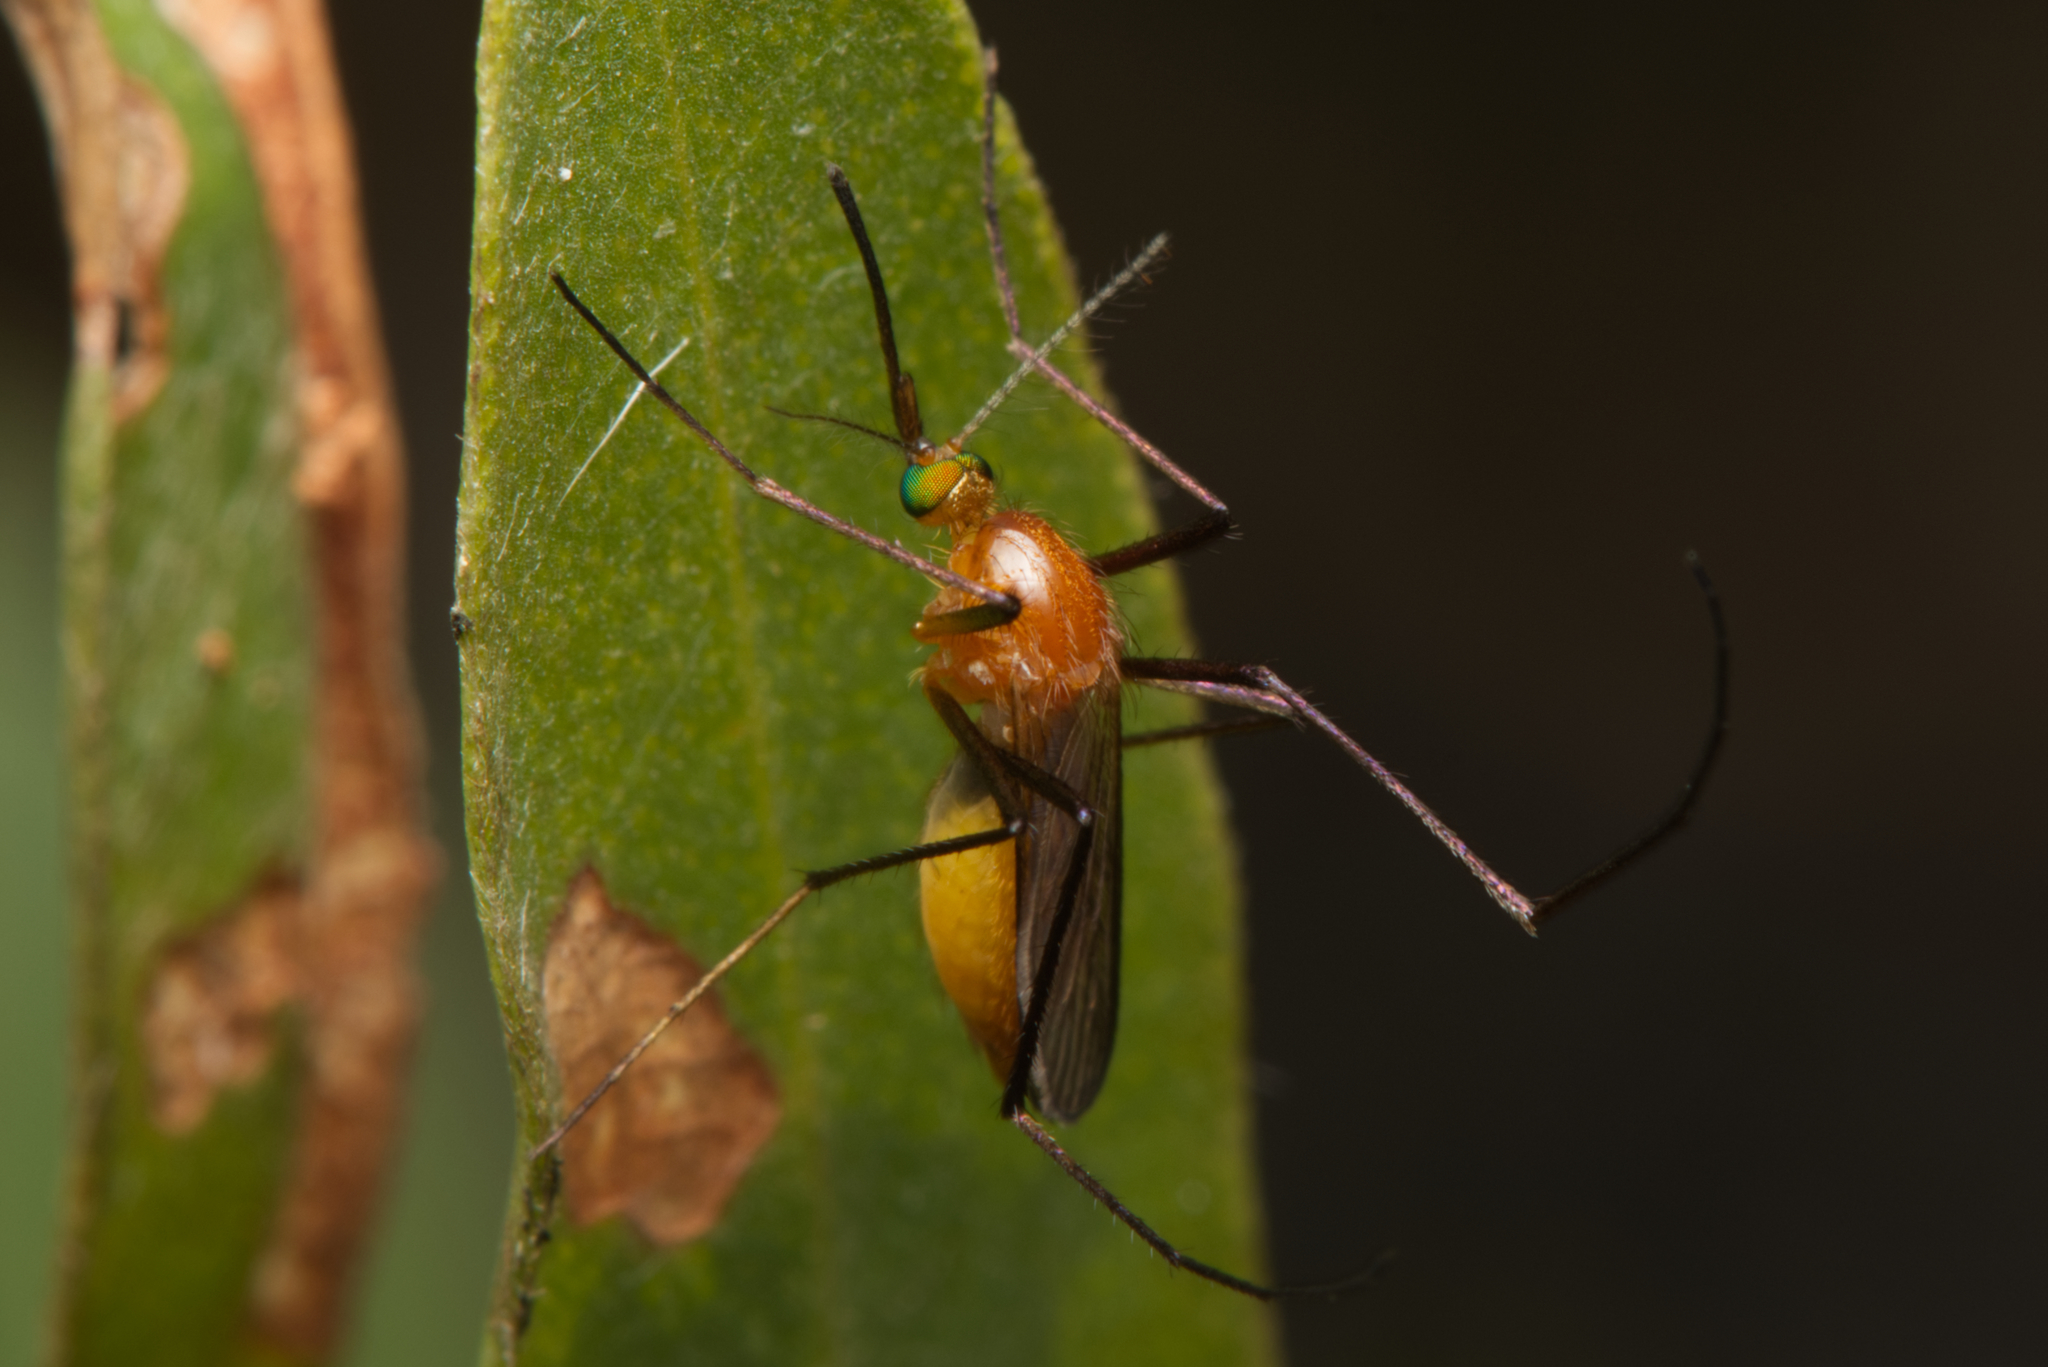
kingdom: Animalia
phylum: Arthropoda
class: Insecta
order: Diptera
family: Culicidae
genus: Coquillettidia
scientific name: Coquillettidia xanthogaster
